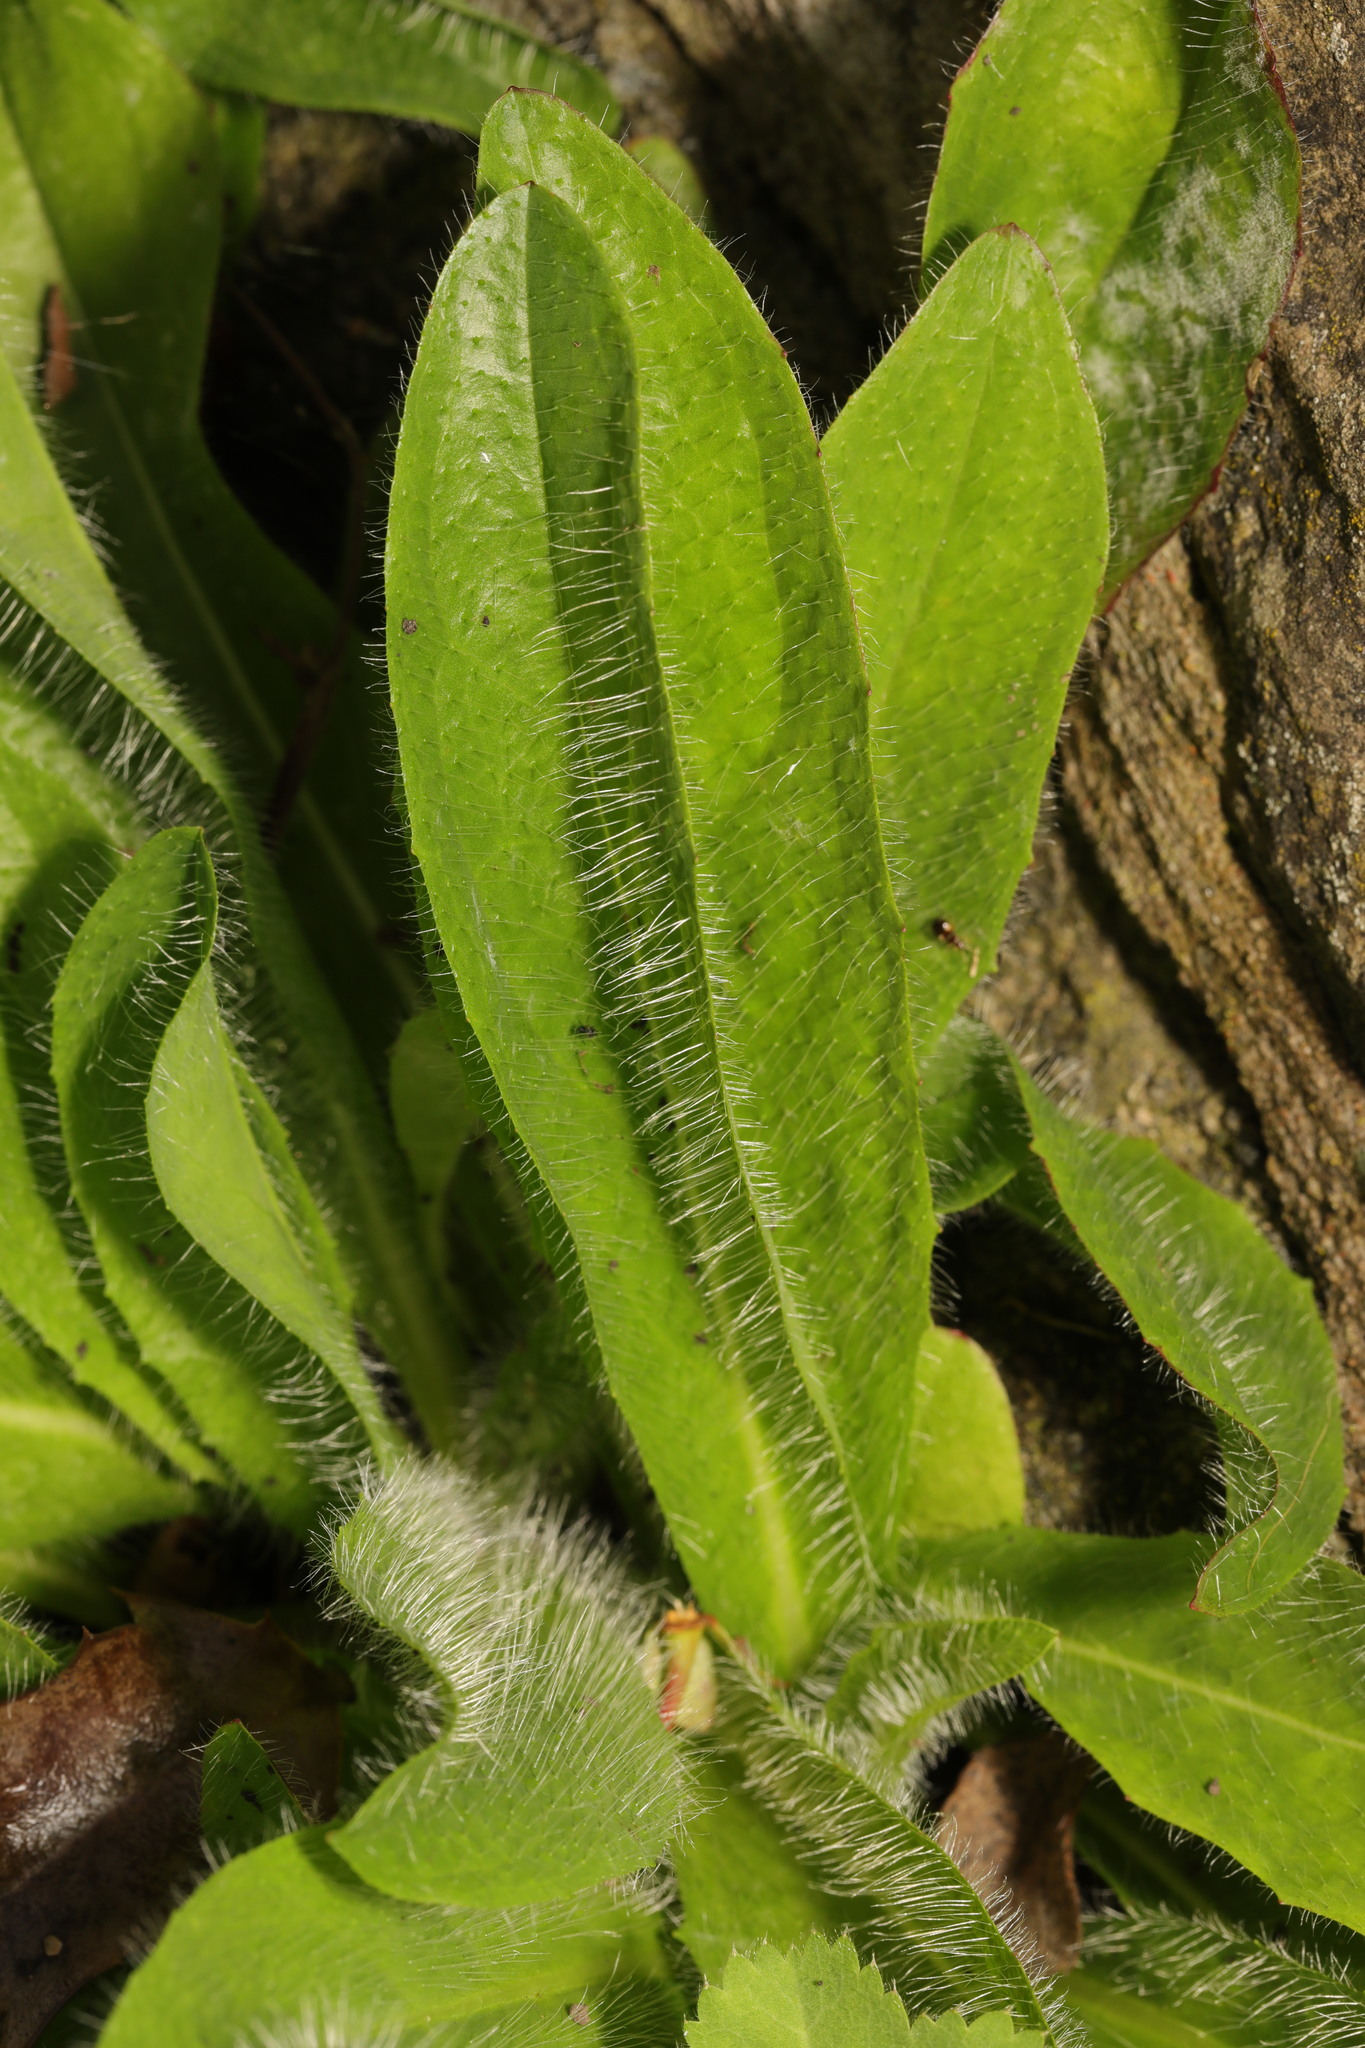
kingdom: Plantae
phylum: Tracheophyta
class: Magnoliopsida
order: Asterales
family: Asteraceae
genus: Pilosella
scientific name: Pilosella aurantiaca
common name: Fox-and-cubs
